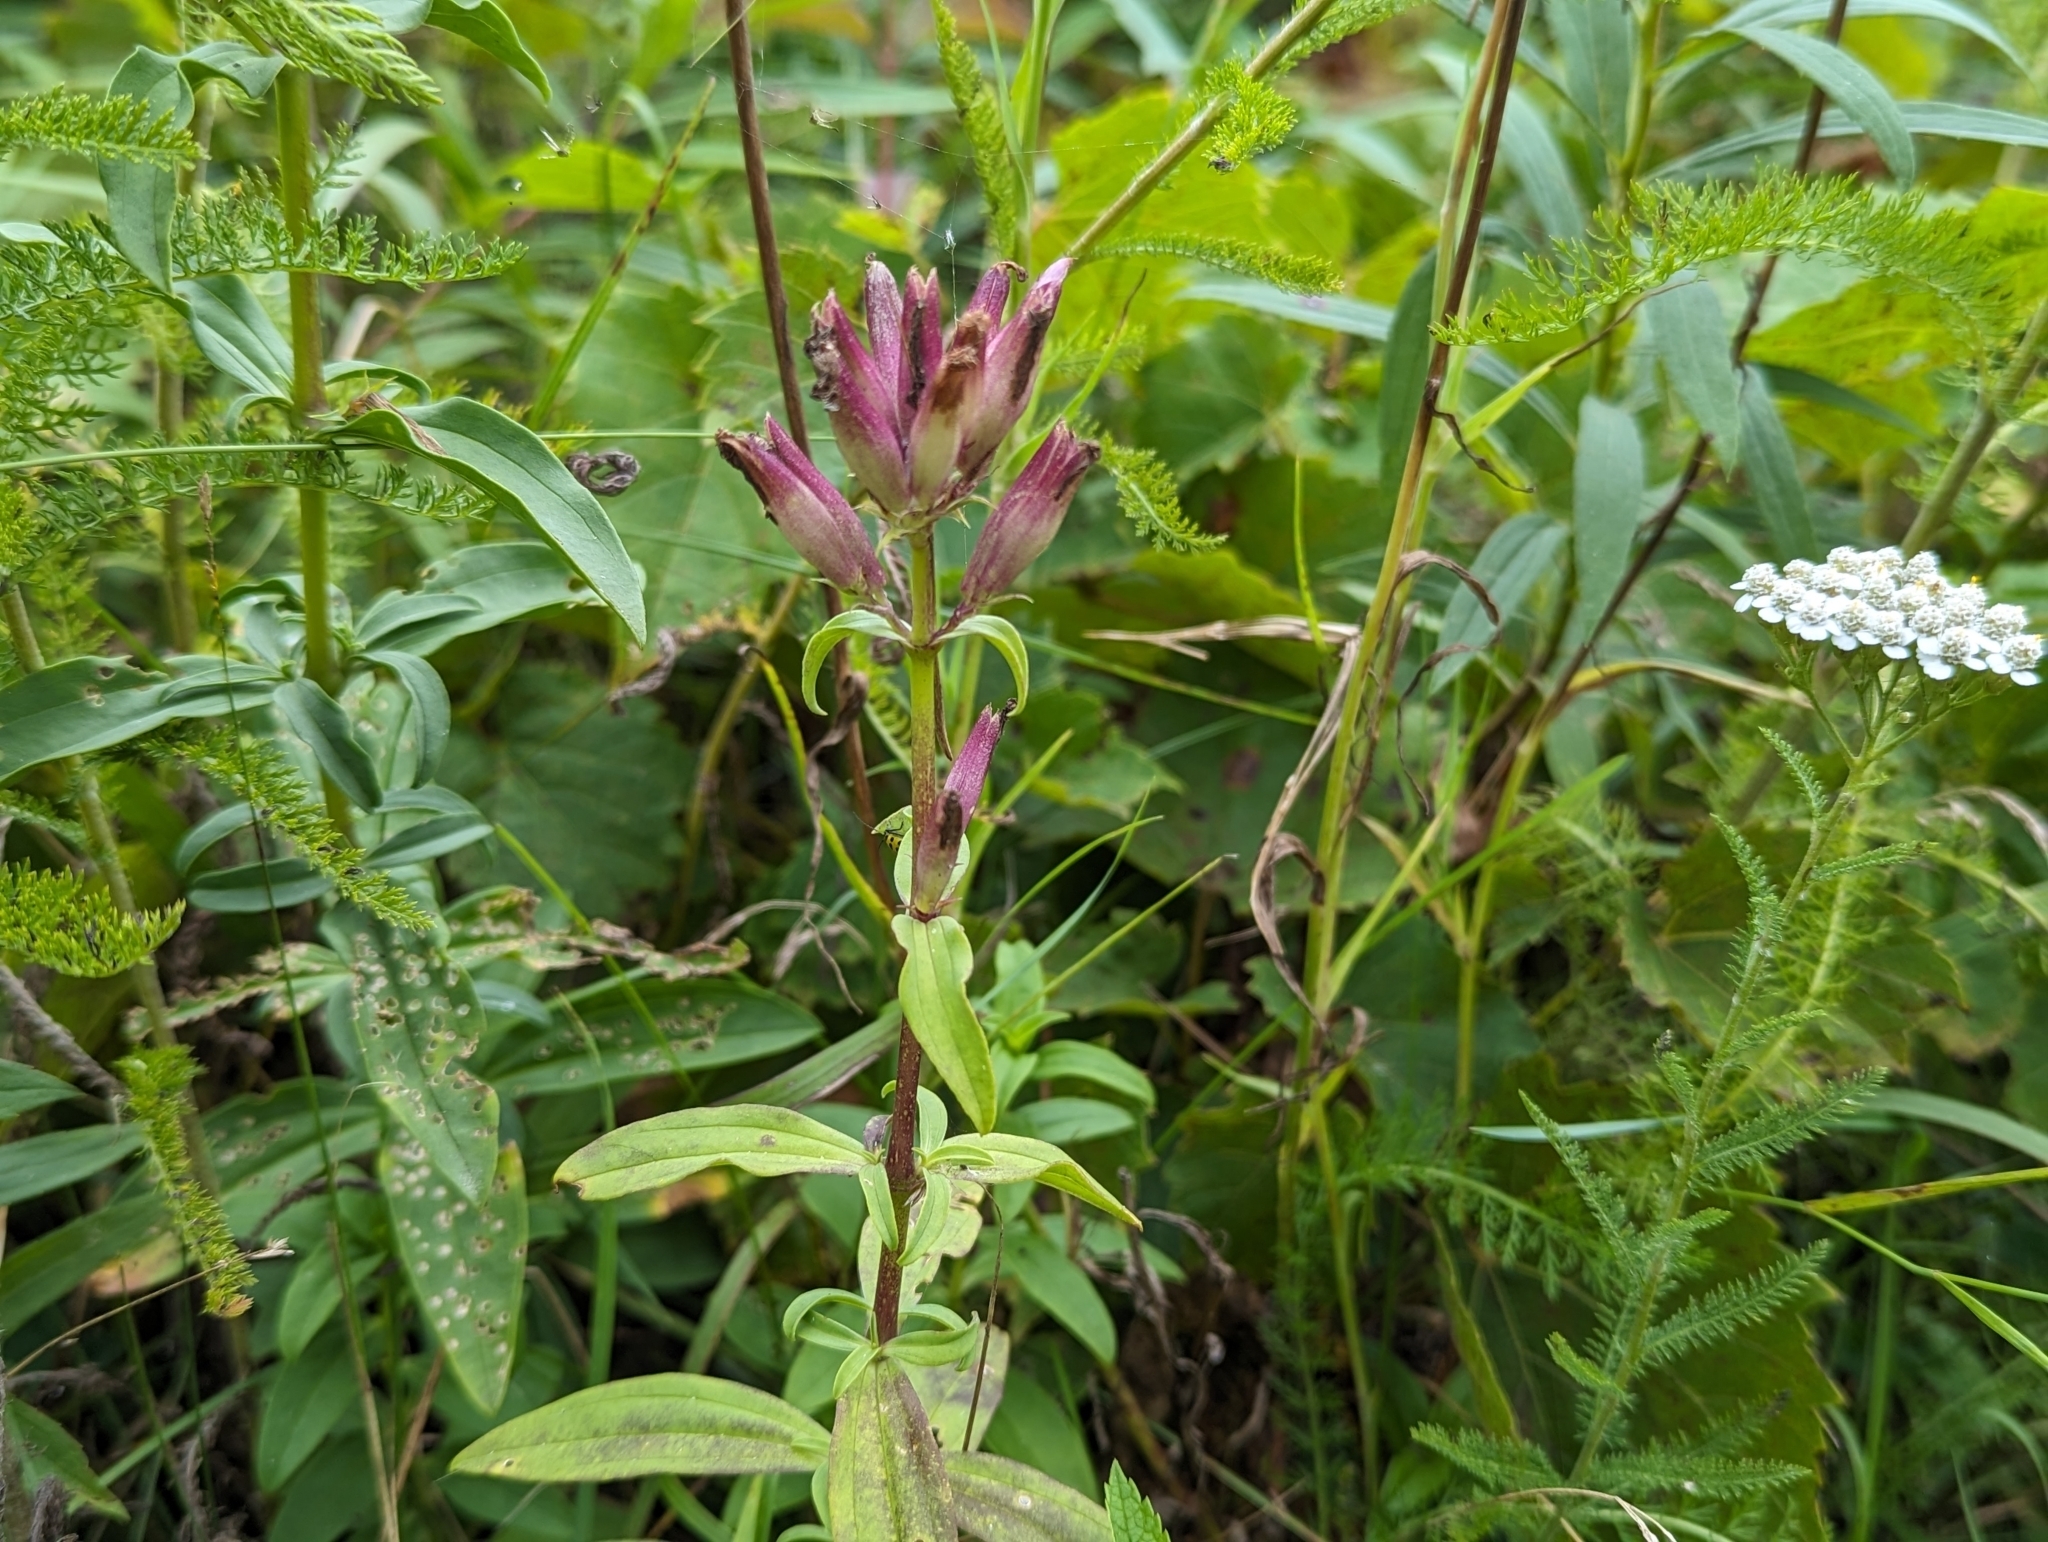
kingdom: Plantae
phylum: Tracheophyta
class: Magnoliopsida
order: Caryophyllales
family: Caryophyllaceae
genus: Saponaria
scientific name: Saponaria officinalis
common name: Soapwort
